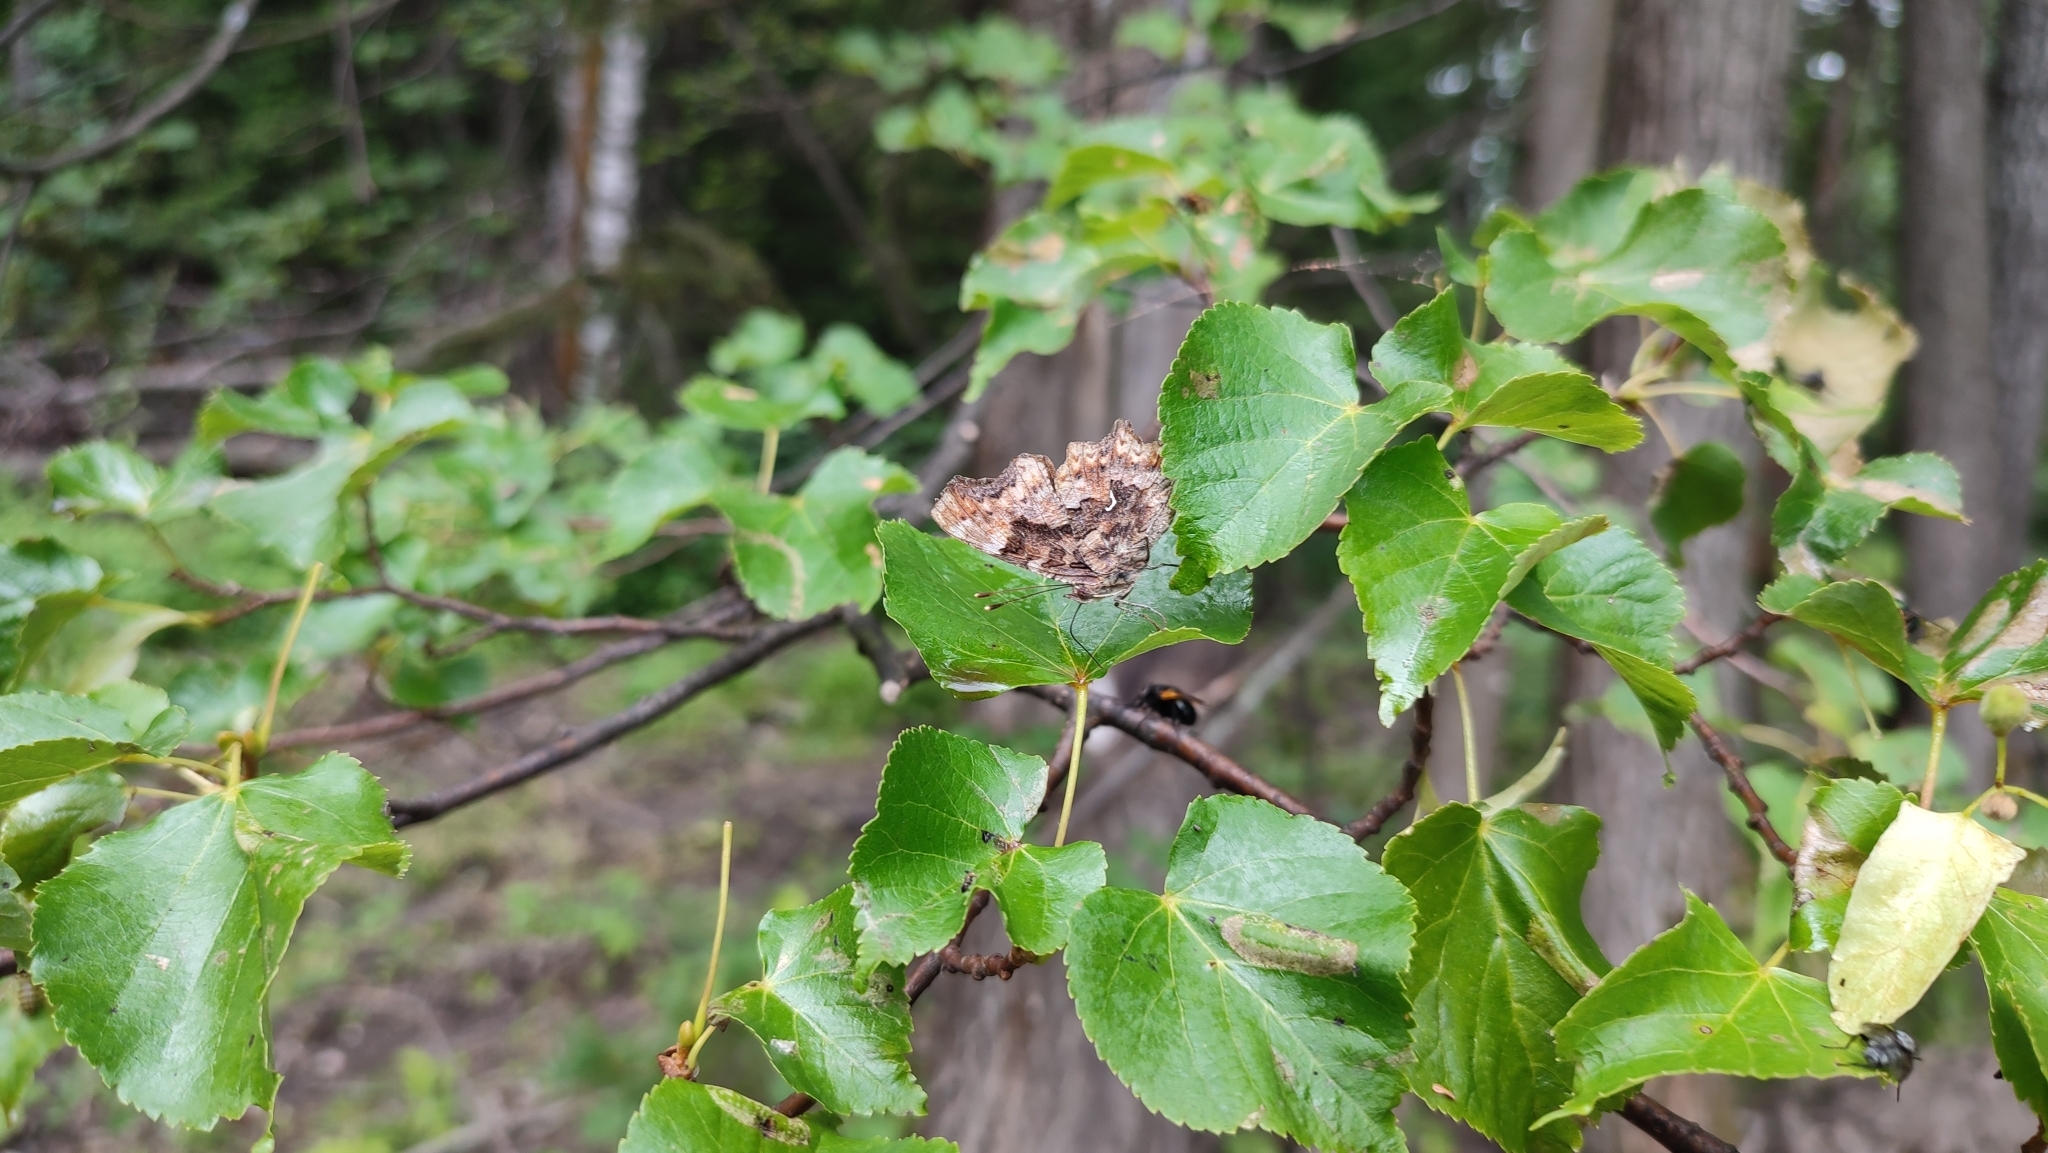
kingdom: Animalia
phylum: Arthropoda
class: Insecta
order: Lepidoptera
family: Nymphalidae
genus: Polygonia
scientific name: Polygonia c-album
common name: Comma
